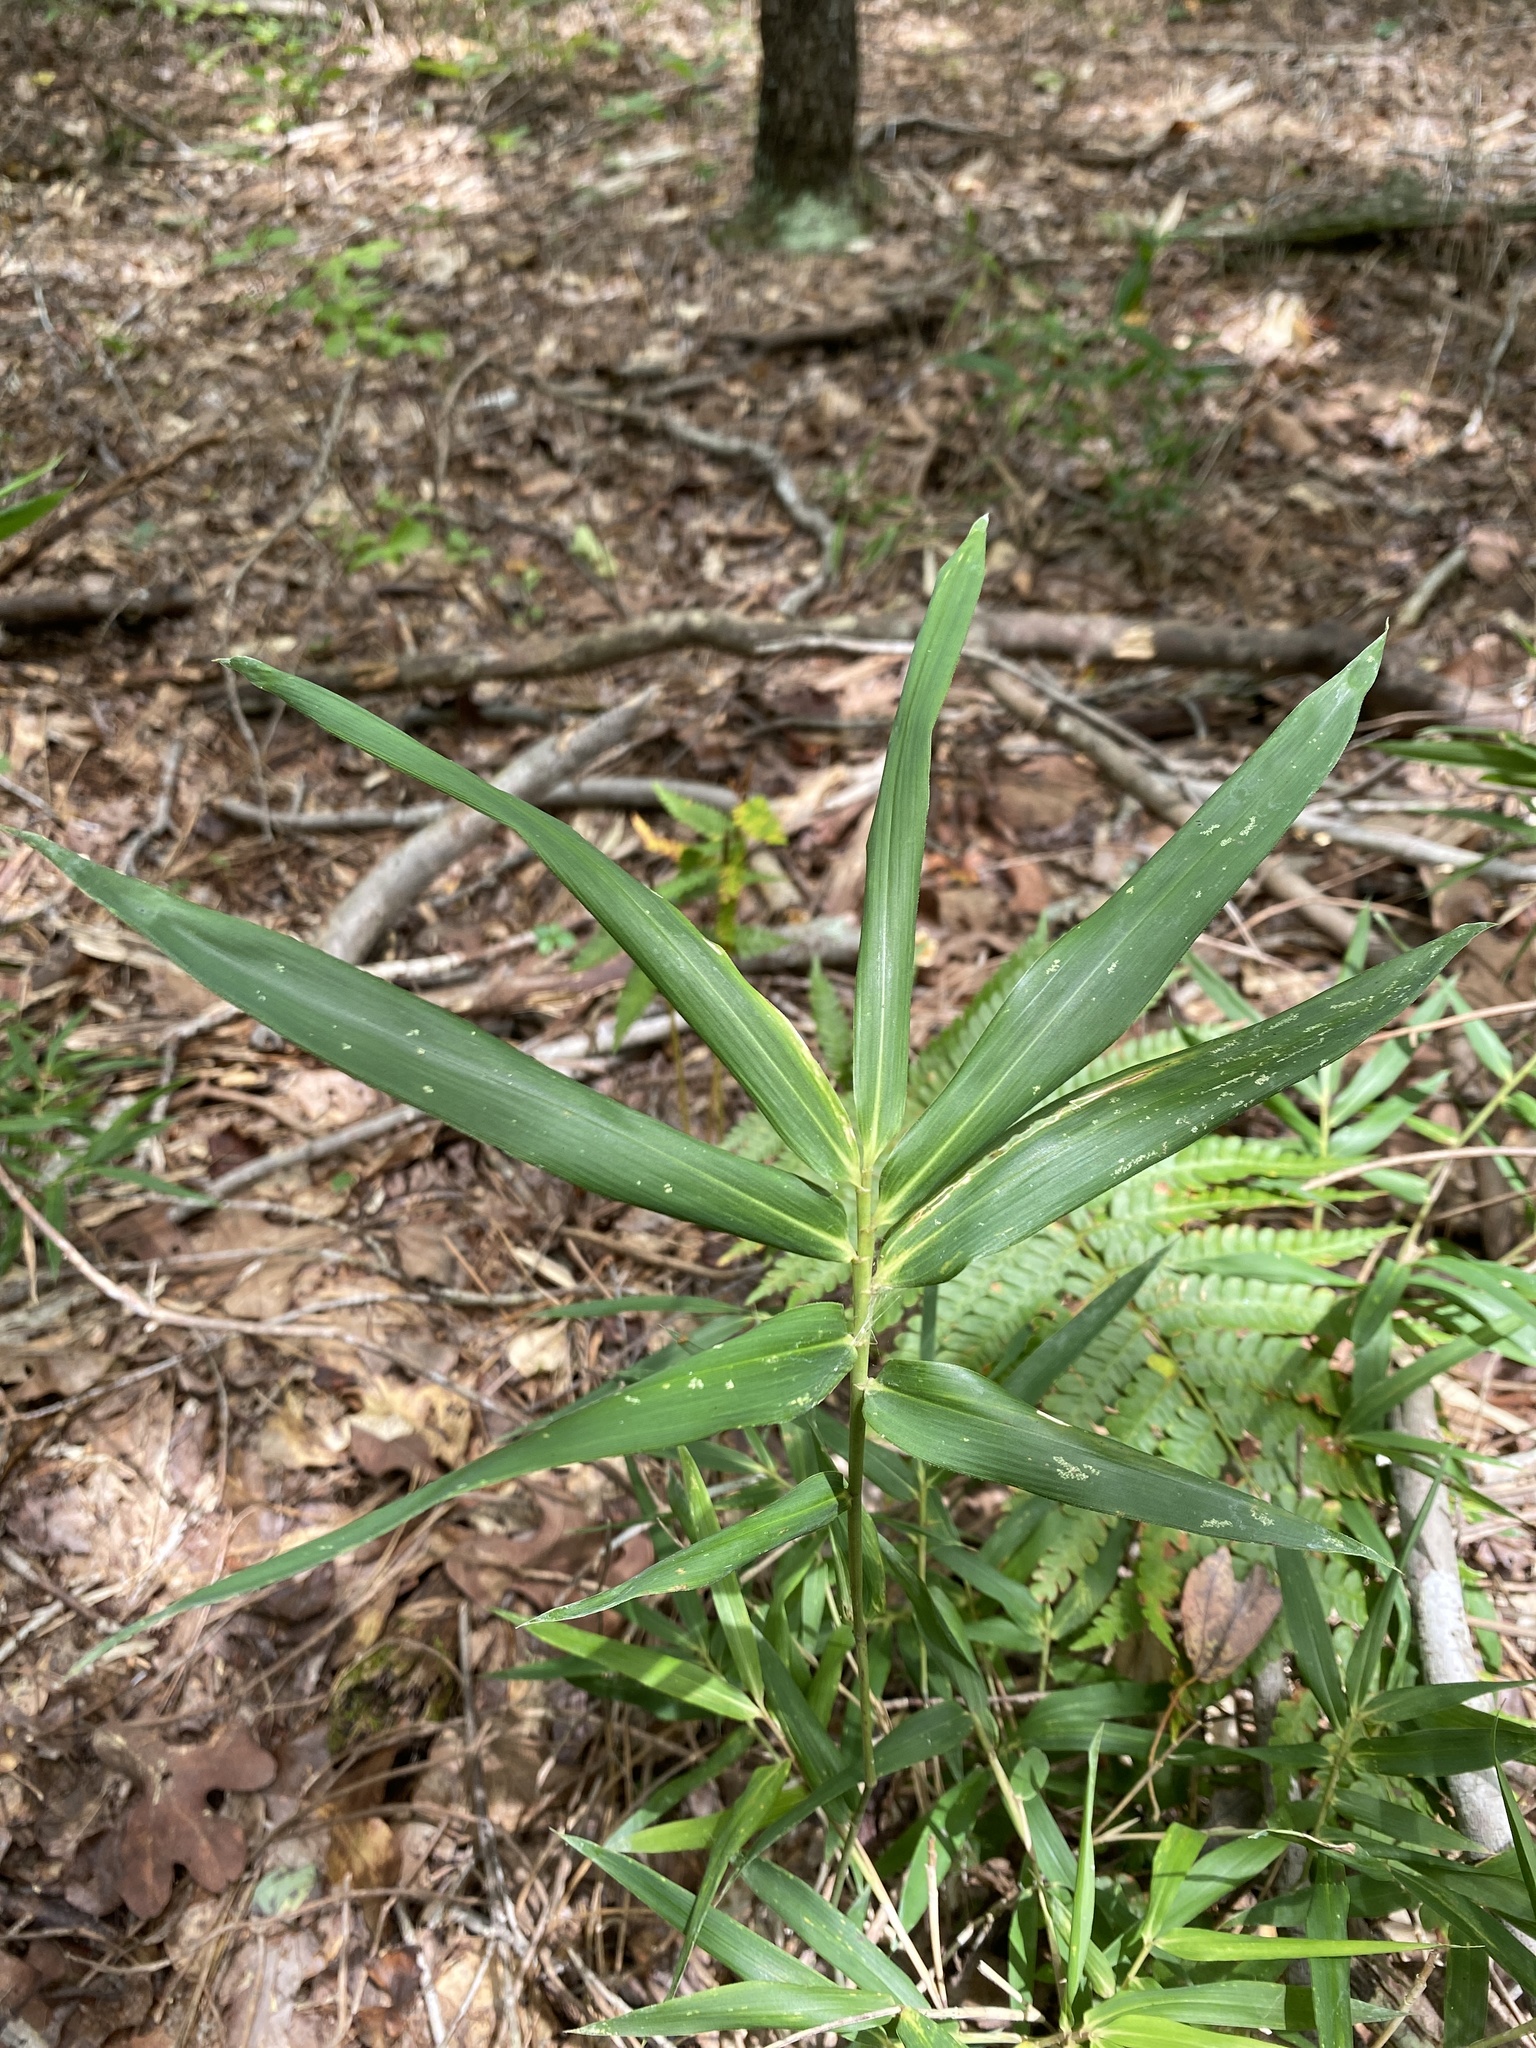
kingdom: Plantae
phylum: Tracheophyta
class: Liliopsida
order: Poales
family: Poaceae
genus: Arundinaria
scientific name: Arundinaria tecta
